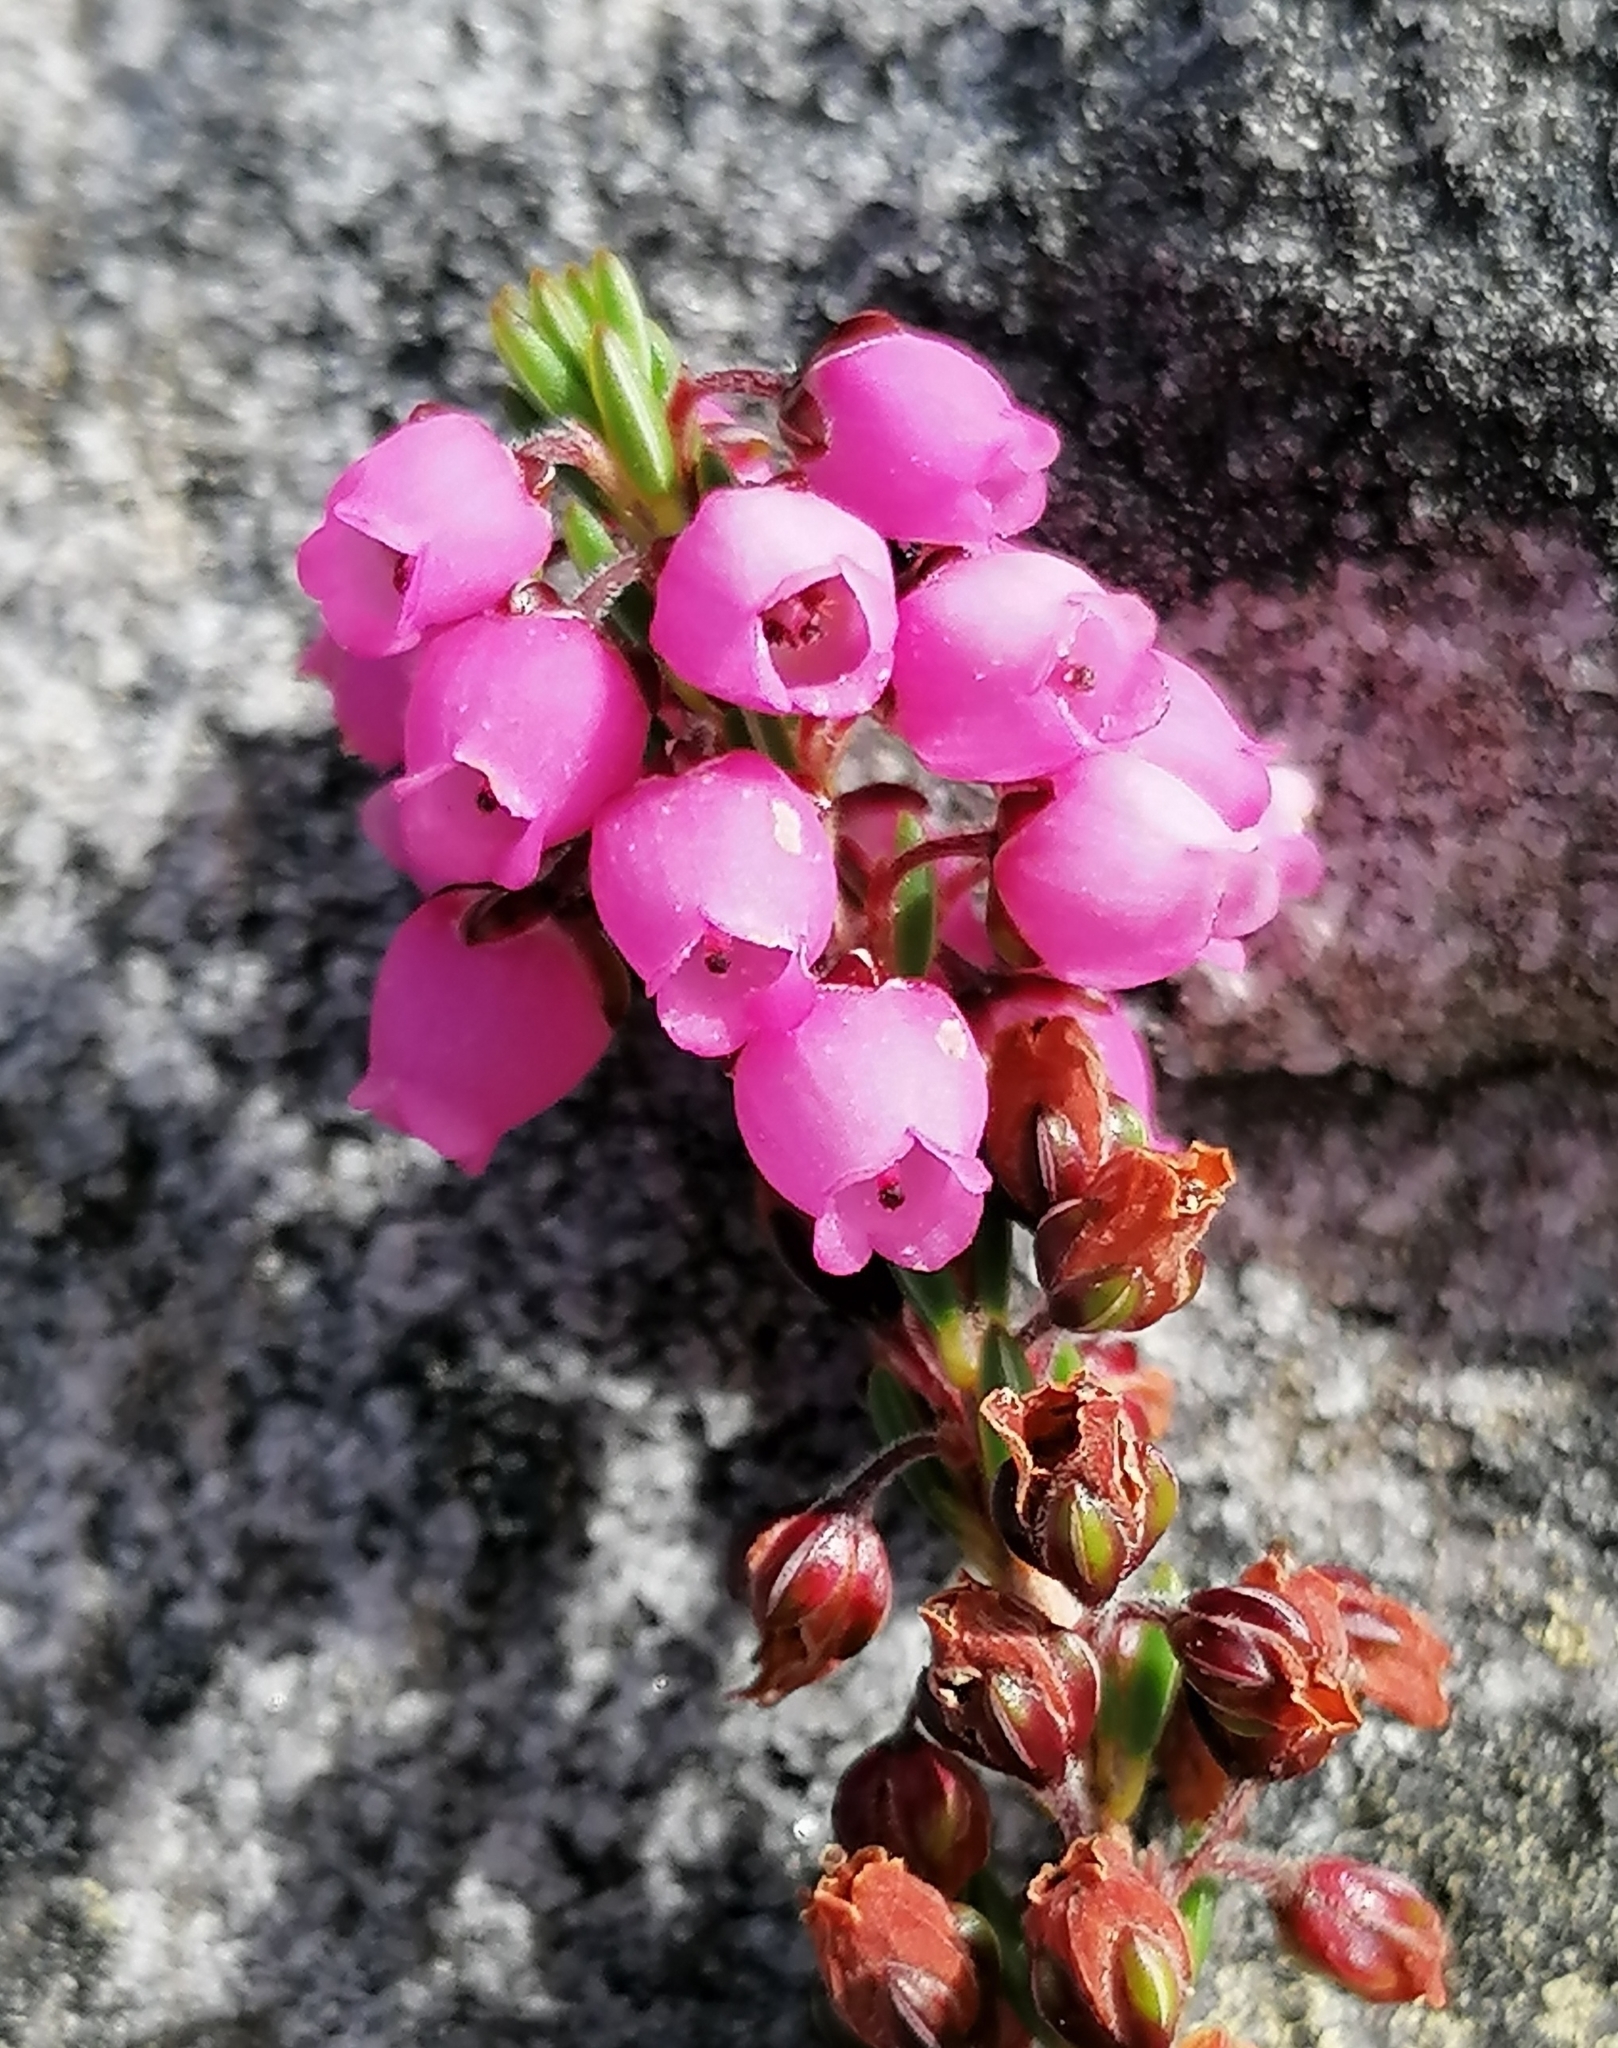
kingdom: Plantae
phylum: Tracheophyta
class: Magnoliopsida
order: Ericales
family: Ericaceae
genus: Erica
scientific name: Erica pulchella
